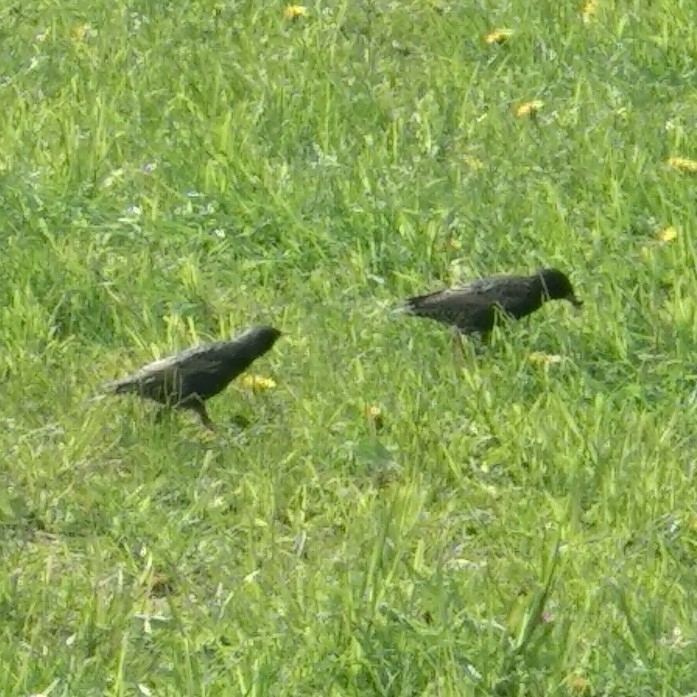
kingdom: Animalia
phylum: Chordata
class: Aves
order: Passeriformes
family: Sturnidae
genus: Sturnus
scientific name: Sturnus vulgaris
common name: Common starling
